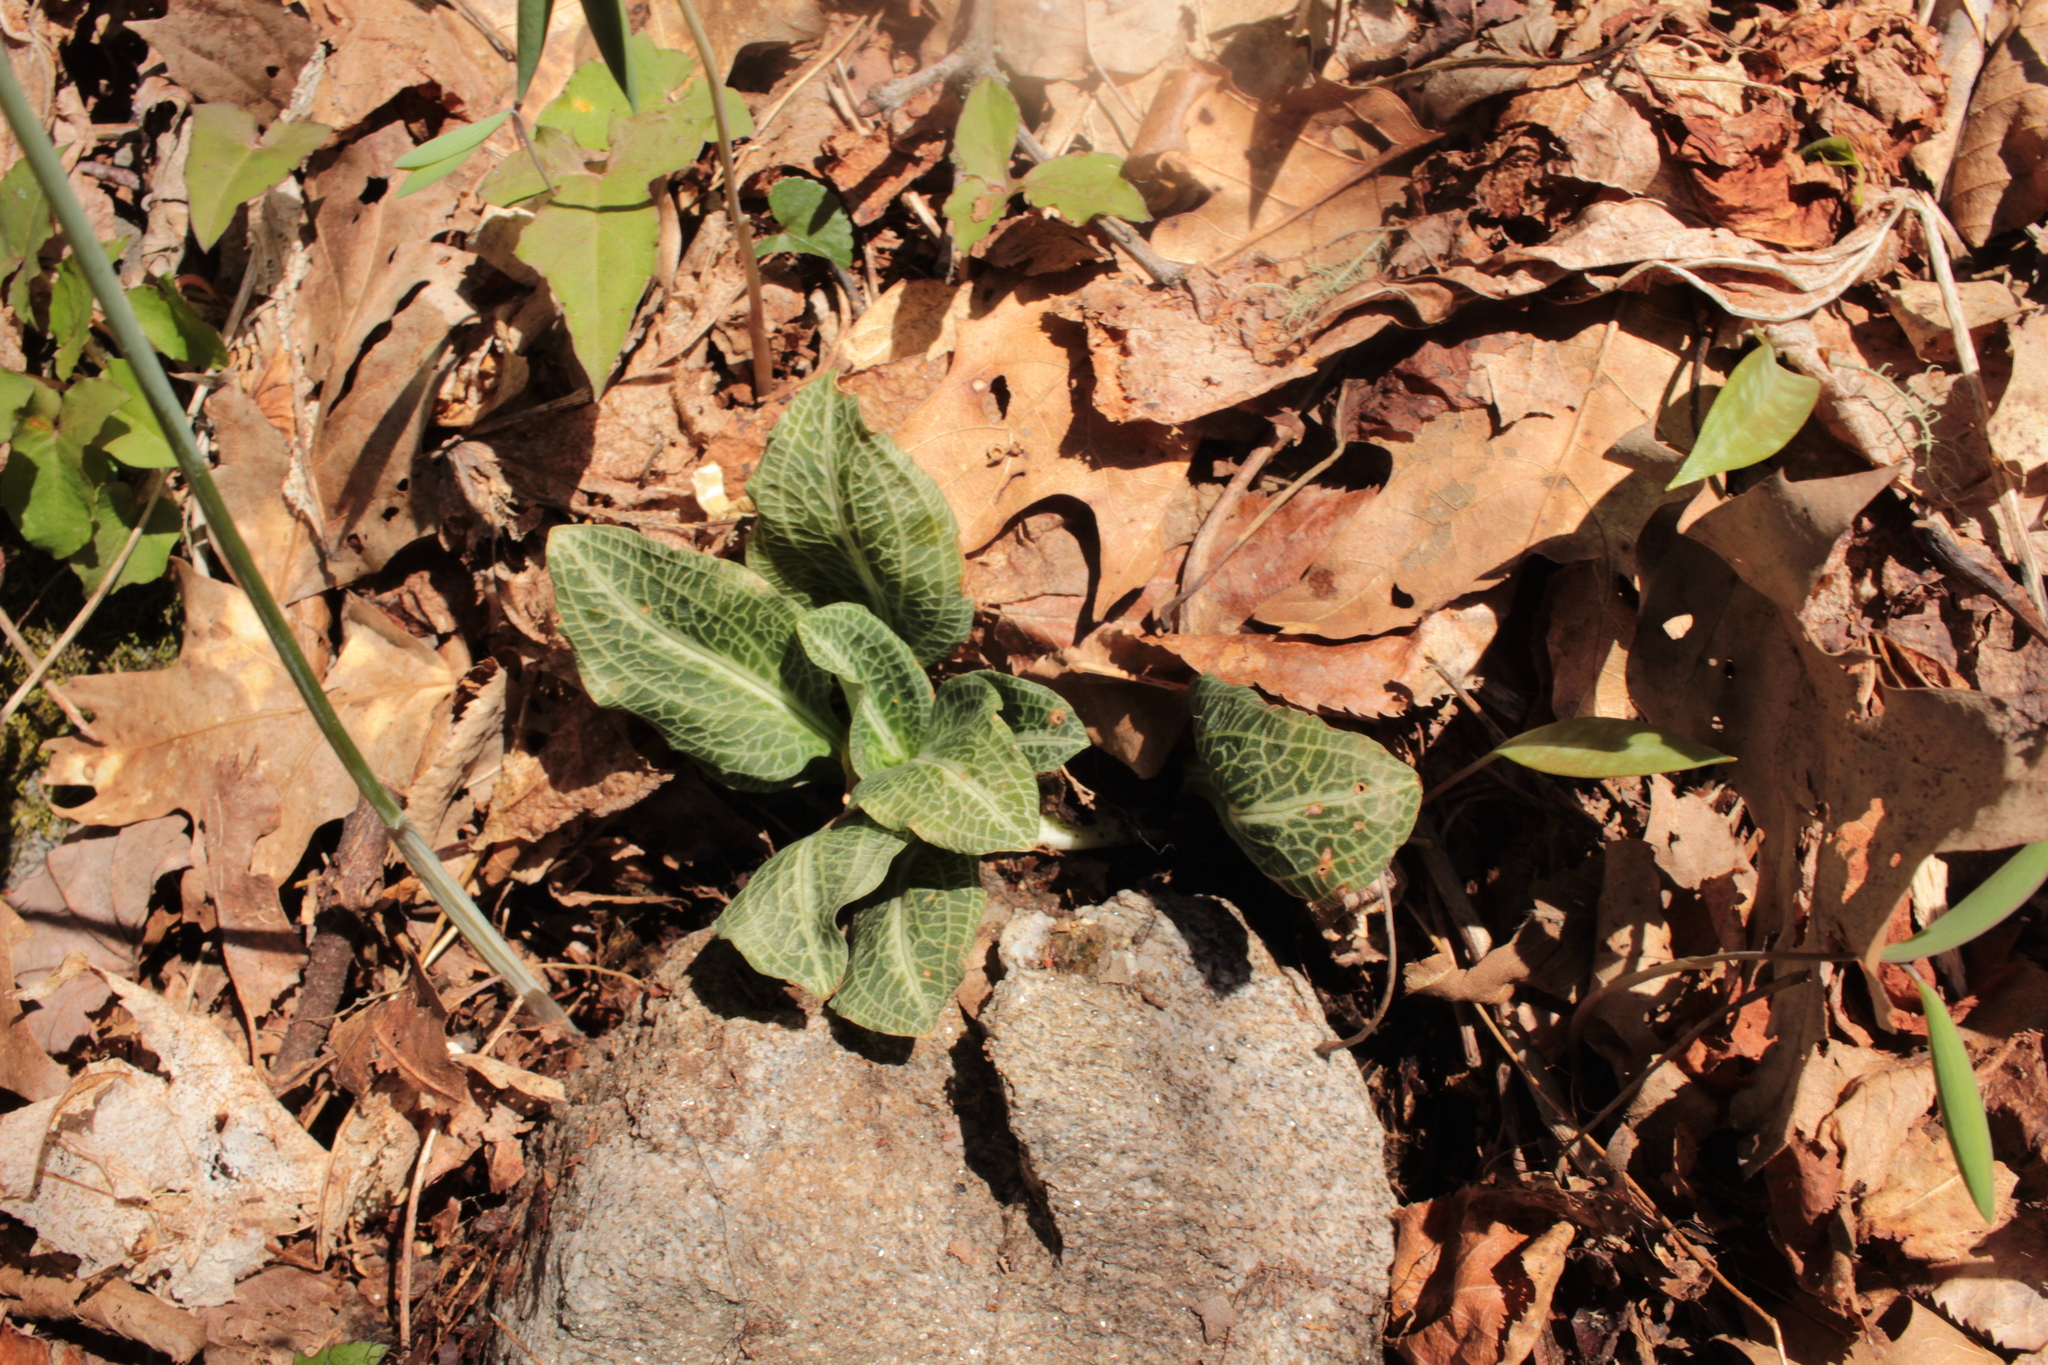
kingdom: Plantae
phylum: Tracheophyta
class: Liliopsida
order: Asparagales
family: Orchidaceae
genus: Goodyera
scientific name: Goodyera pubescens
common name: Downy rattlesnake-plantain
